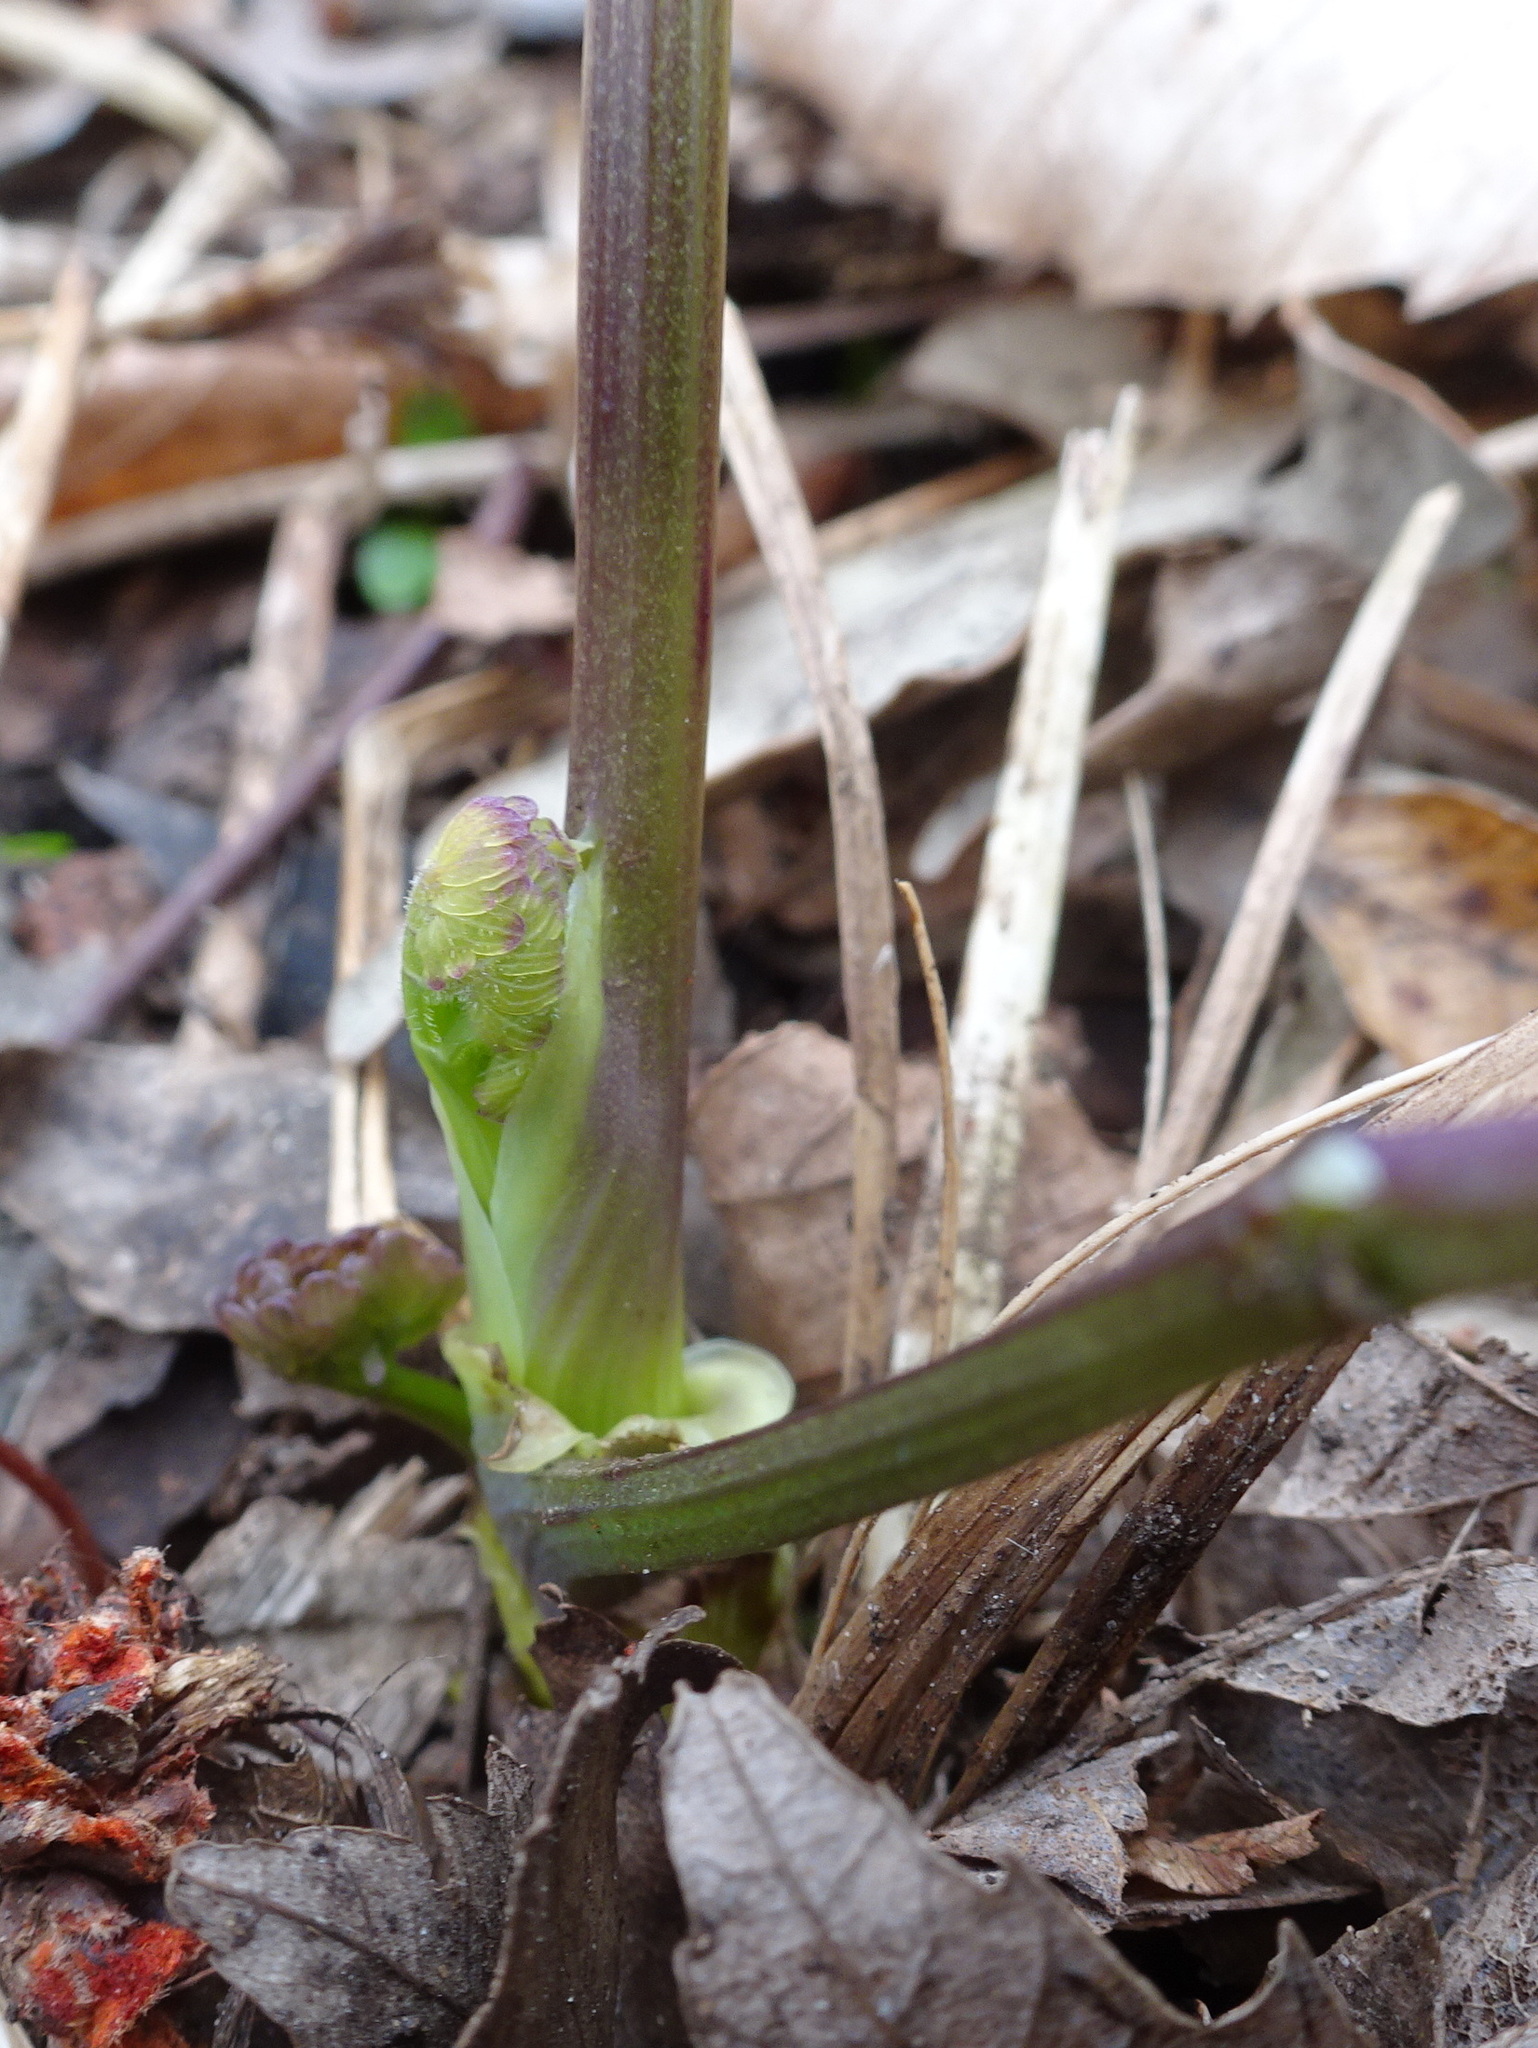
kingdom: Plantae
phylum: Tracheophyta
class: Magnoliopsida
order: Ranunculales
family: Ranunculaceae
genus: Thalictrum
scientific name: Thalictrum dioicum
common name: Early meadow-rue
